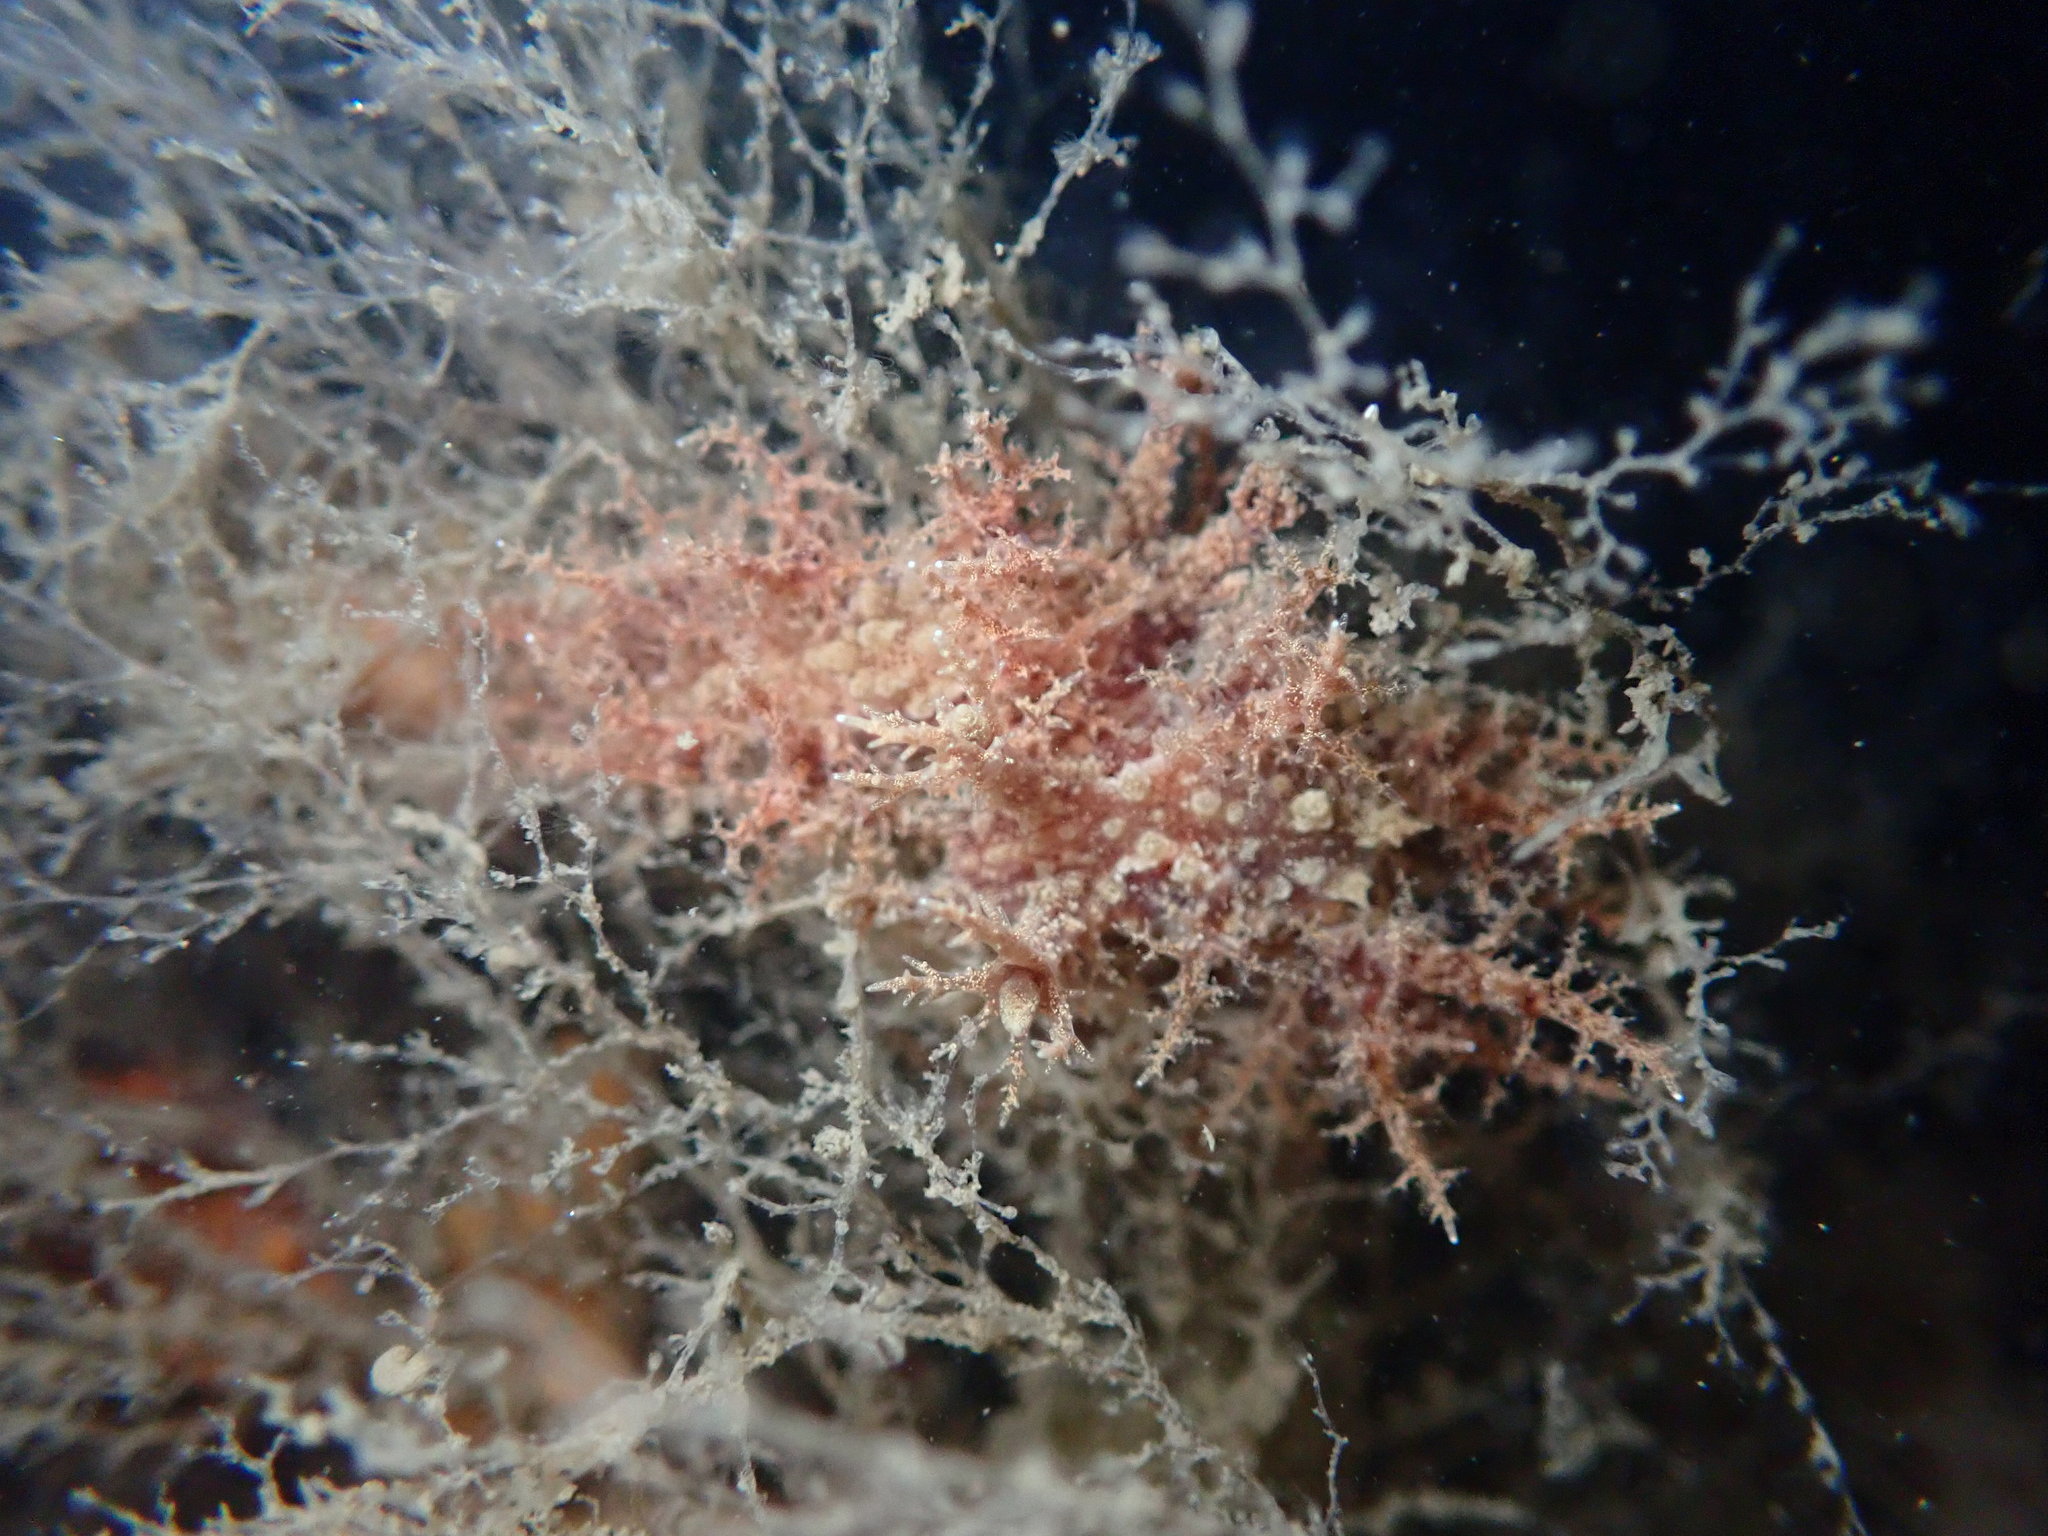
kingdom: Animalia
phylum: Mollusca
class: Gastropoda
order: Nudibranchia
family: Dendronotidae
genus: Dendronotus
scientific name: Dendronotus venustus
